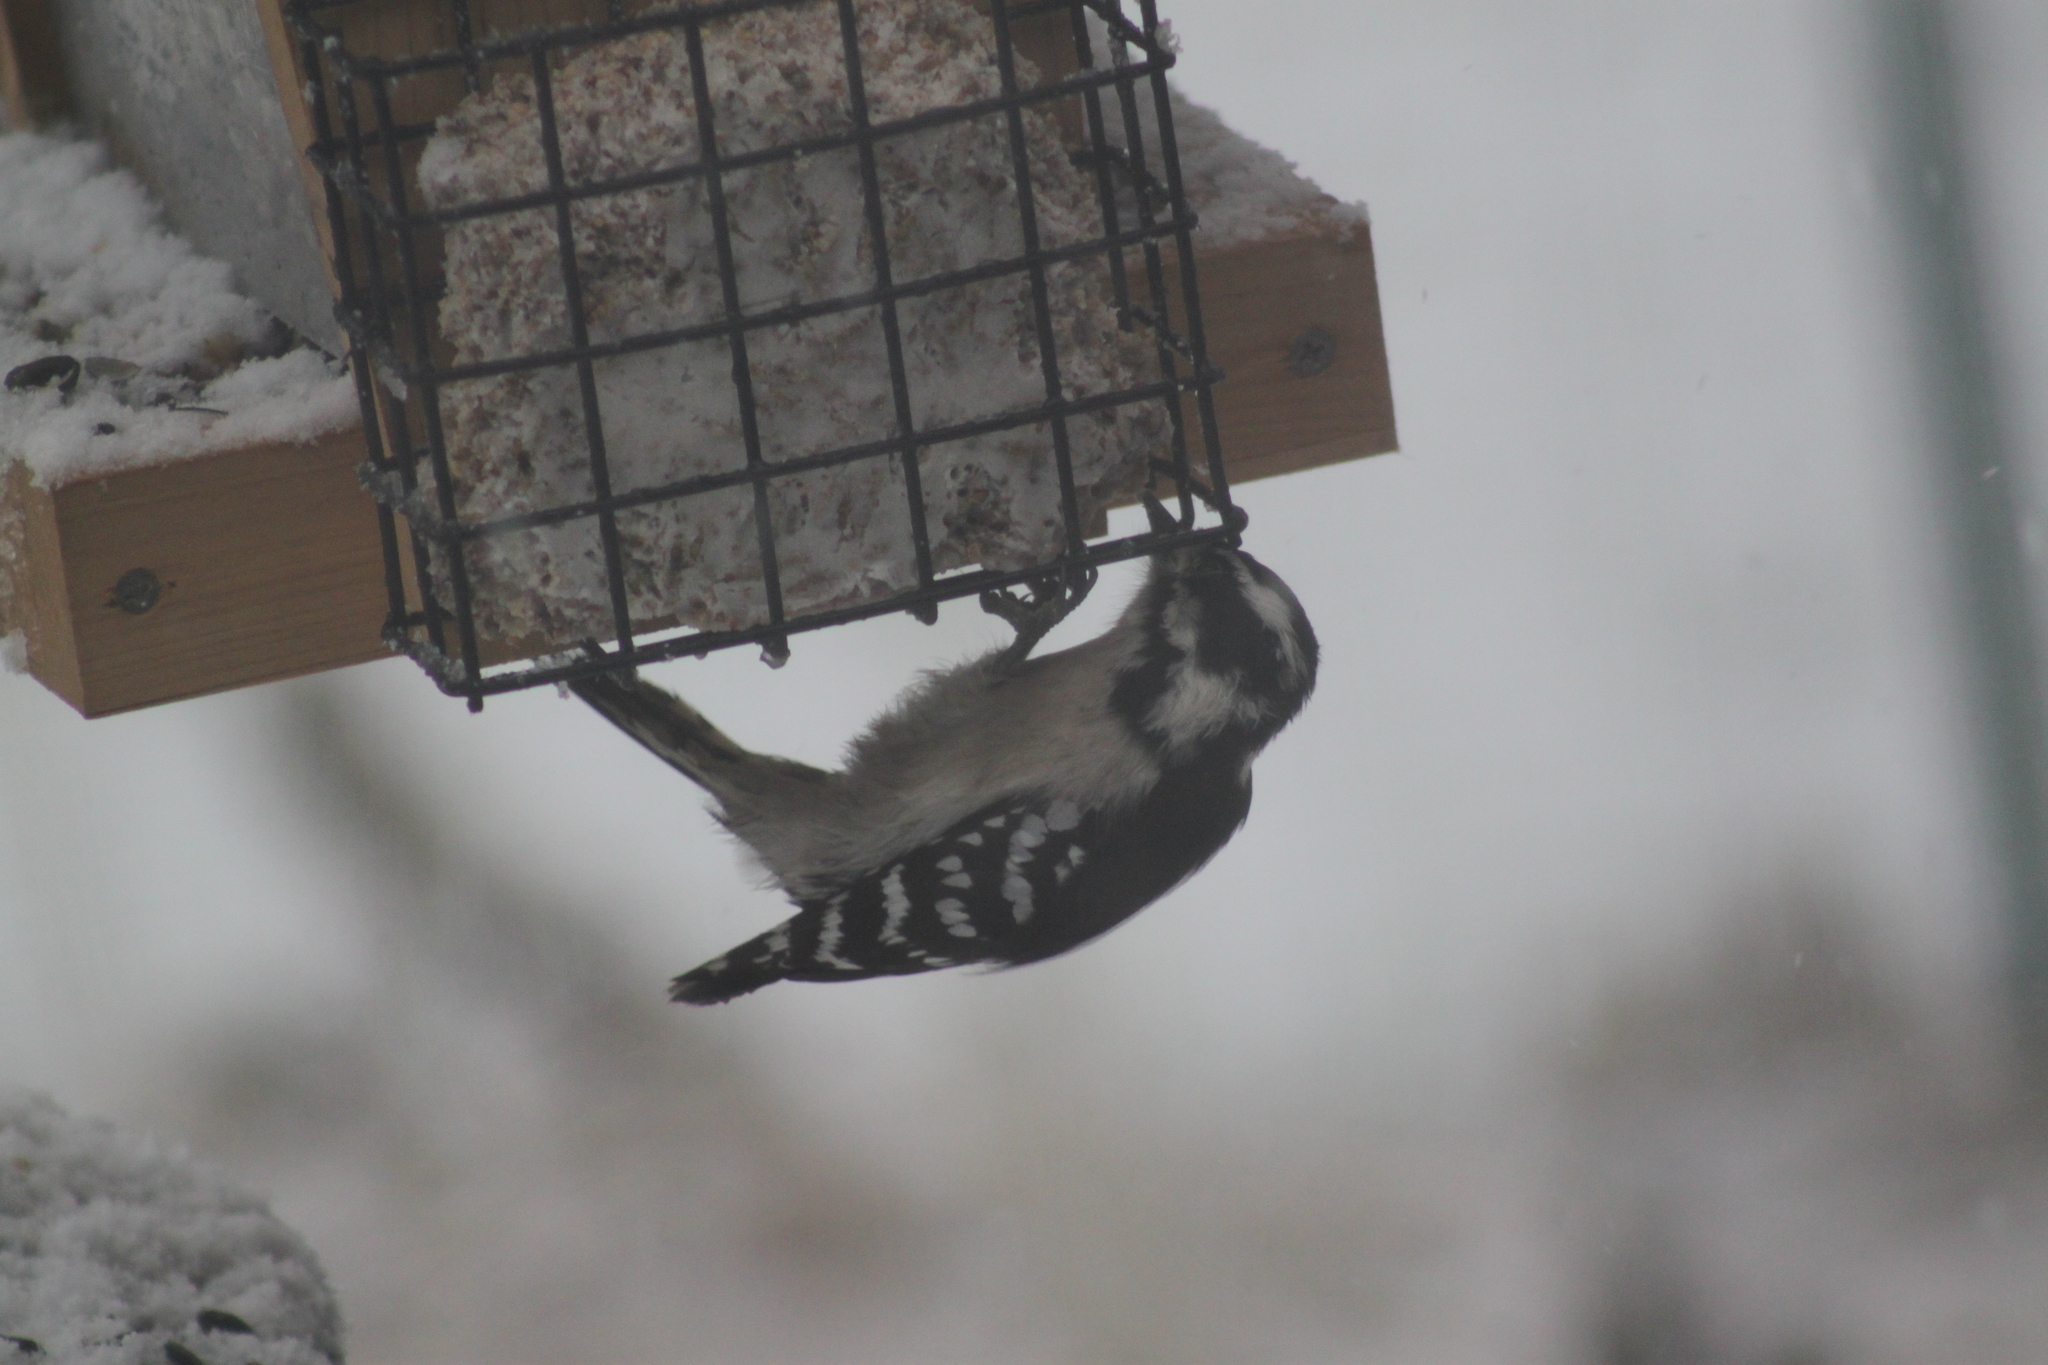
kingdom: Animalia
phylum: Chordata
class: Aves
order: Piciformes
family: Picidae
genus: Dryobates
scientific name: Dryobates pubescens
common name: Downy woodpecker
